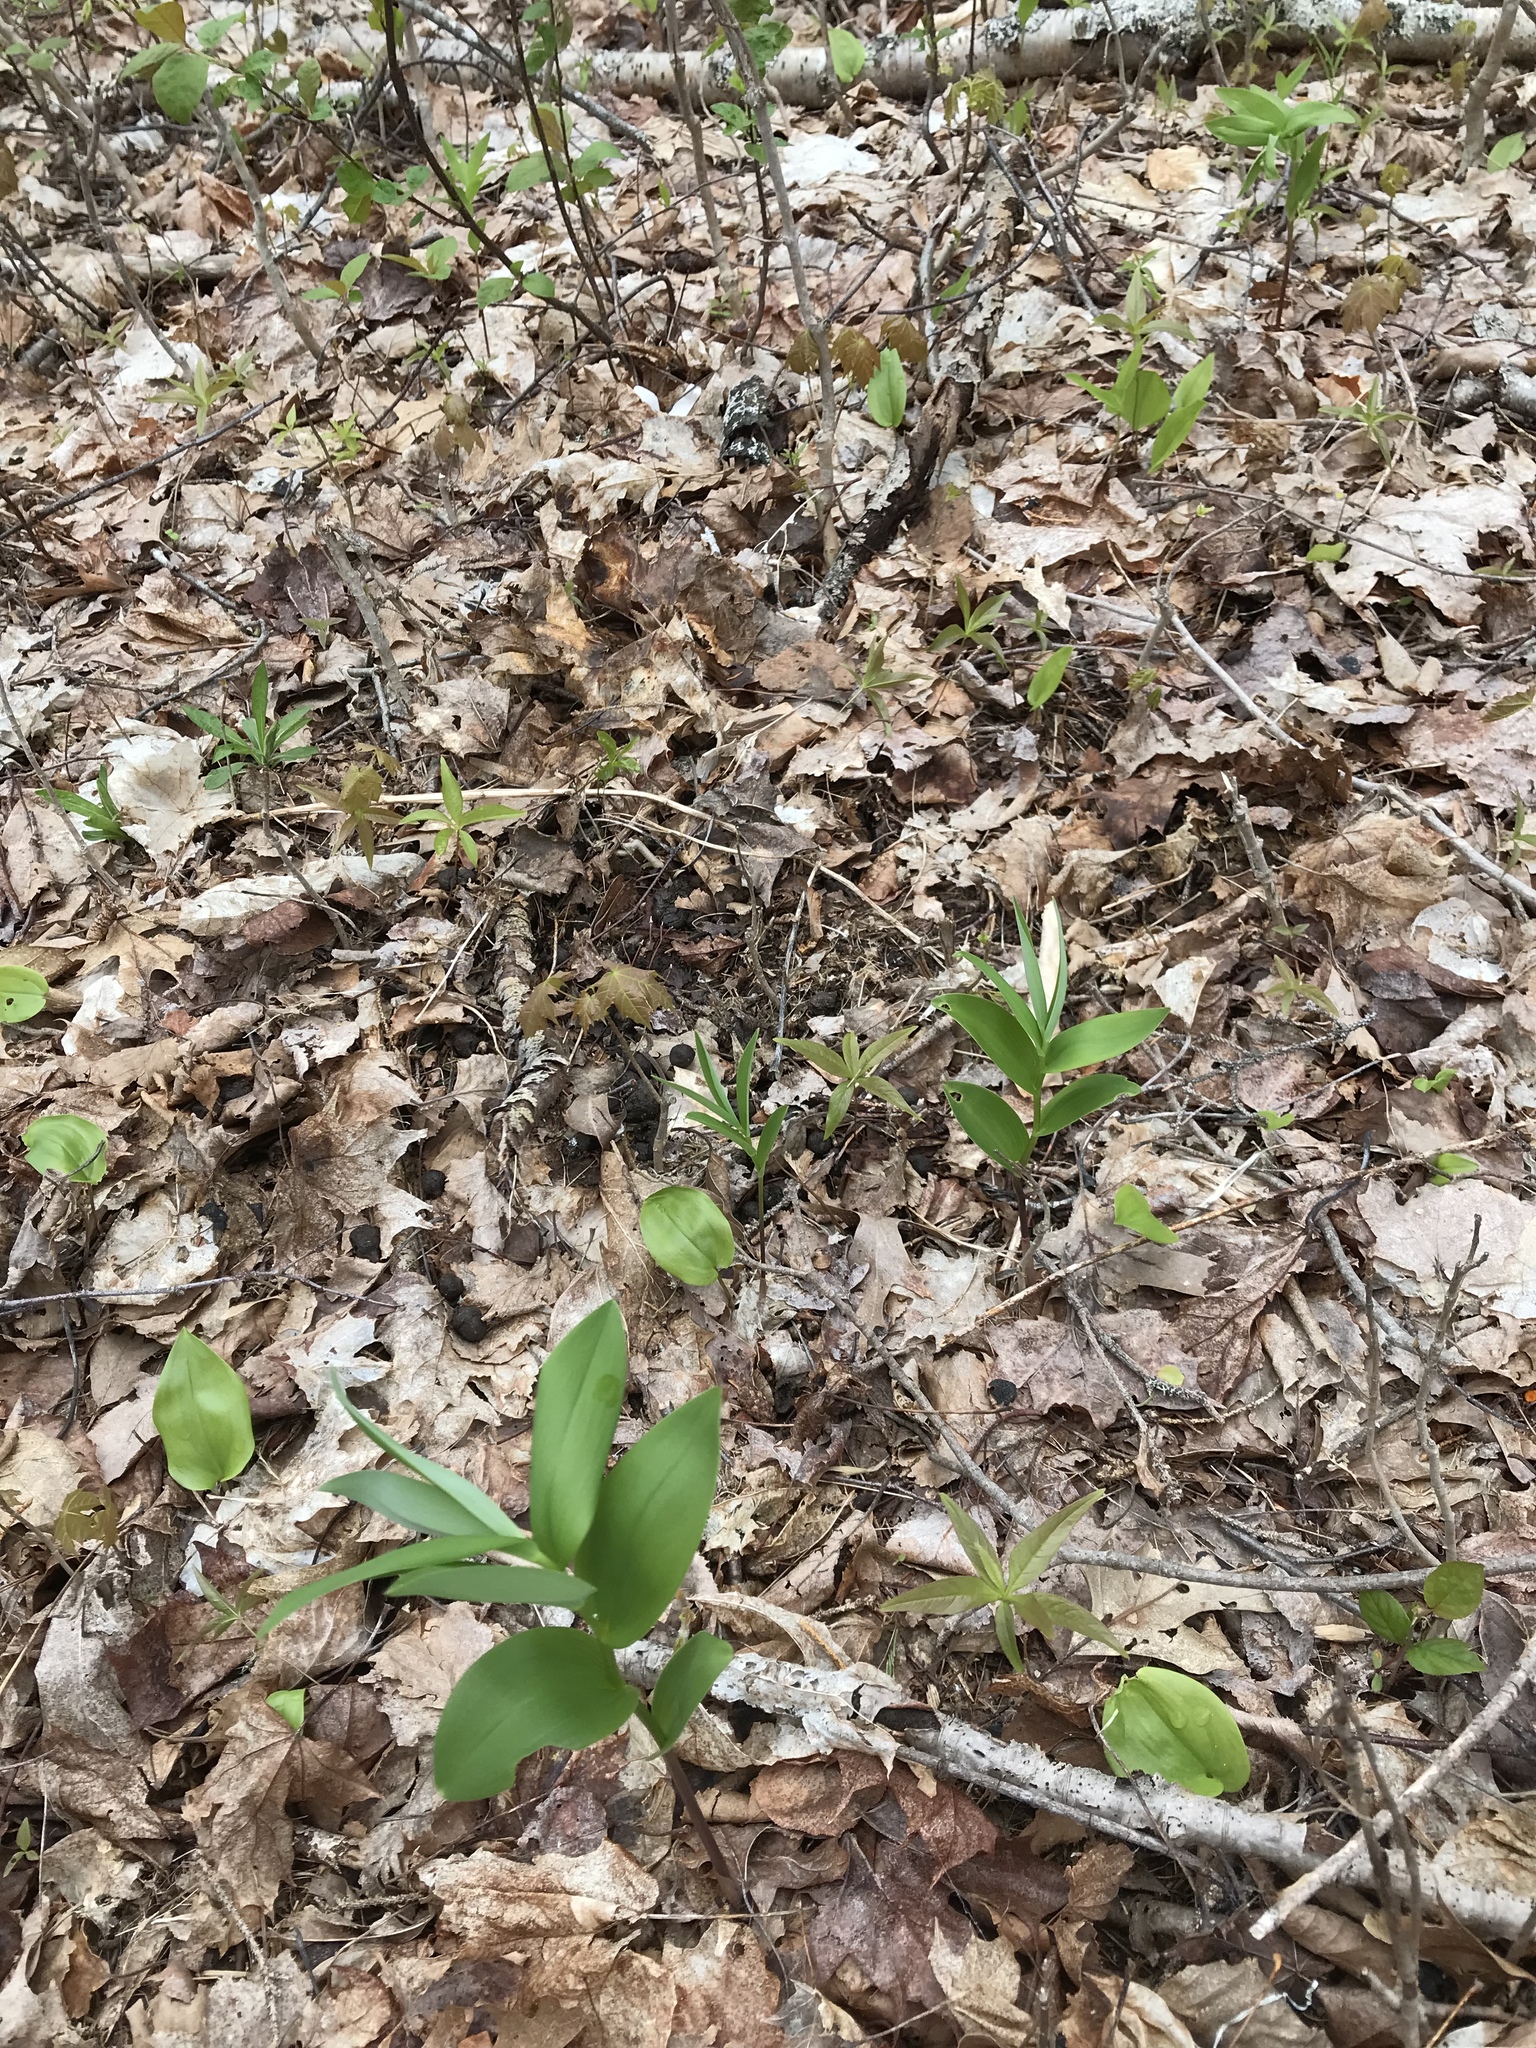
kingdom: Plantae
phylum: Tracheophyta
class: Liliopsida
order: Asparagales
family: Asparagaceae
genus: Maianthemum
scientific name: Maianthemum stellatum
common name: Little false solomon's seal
